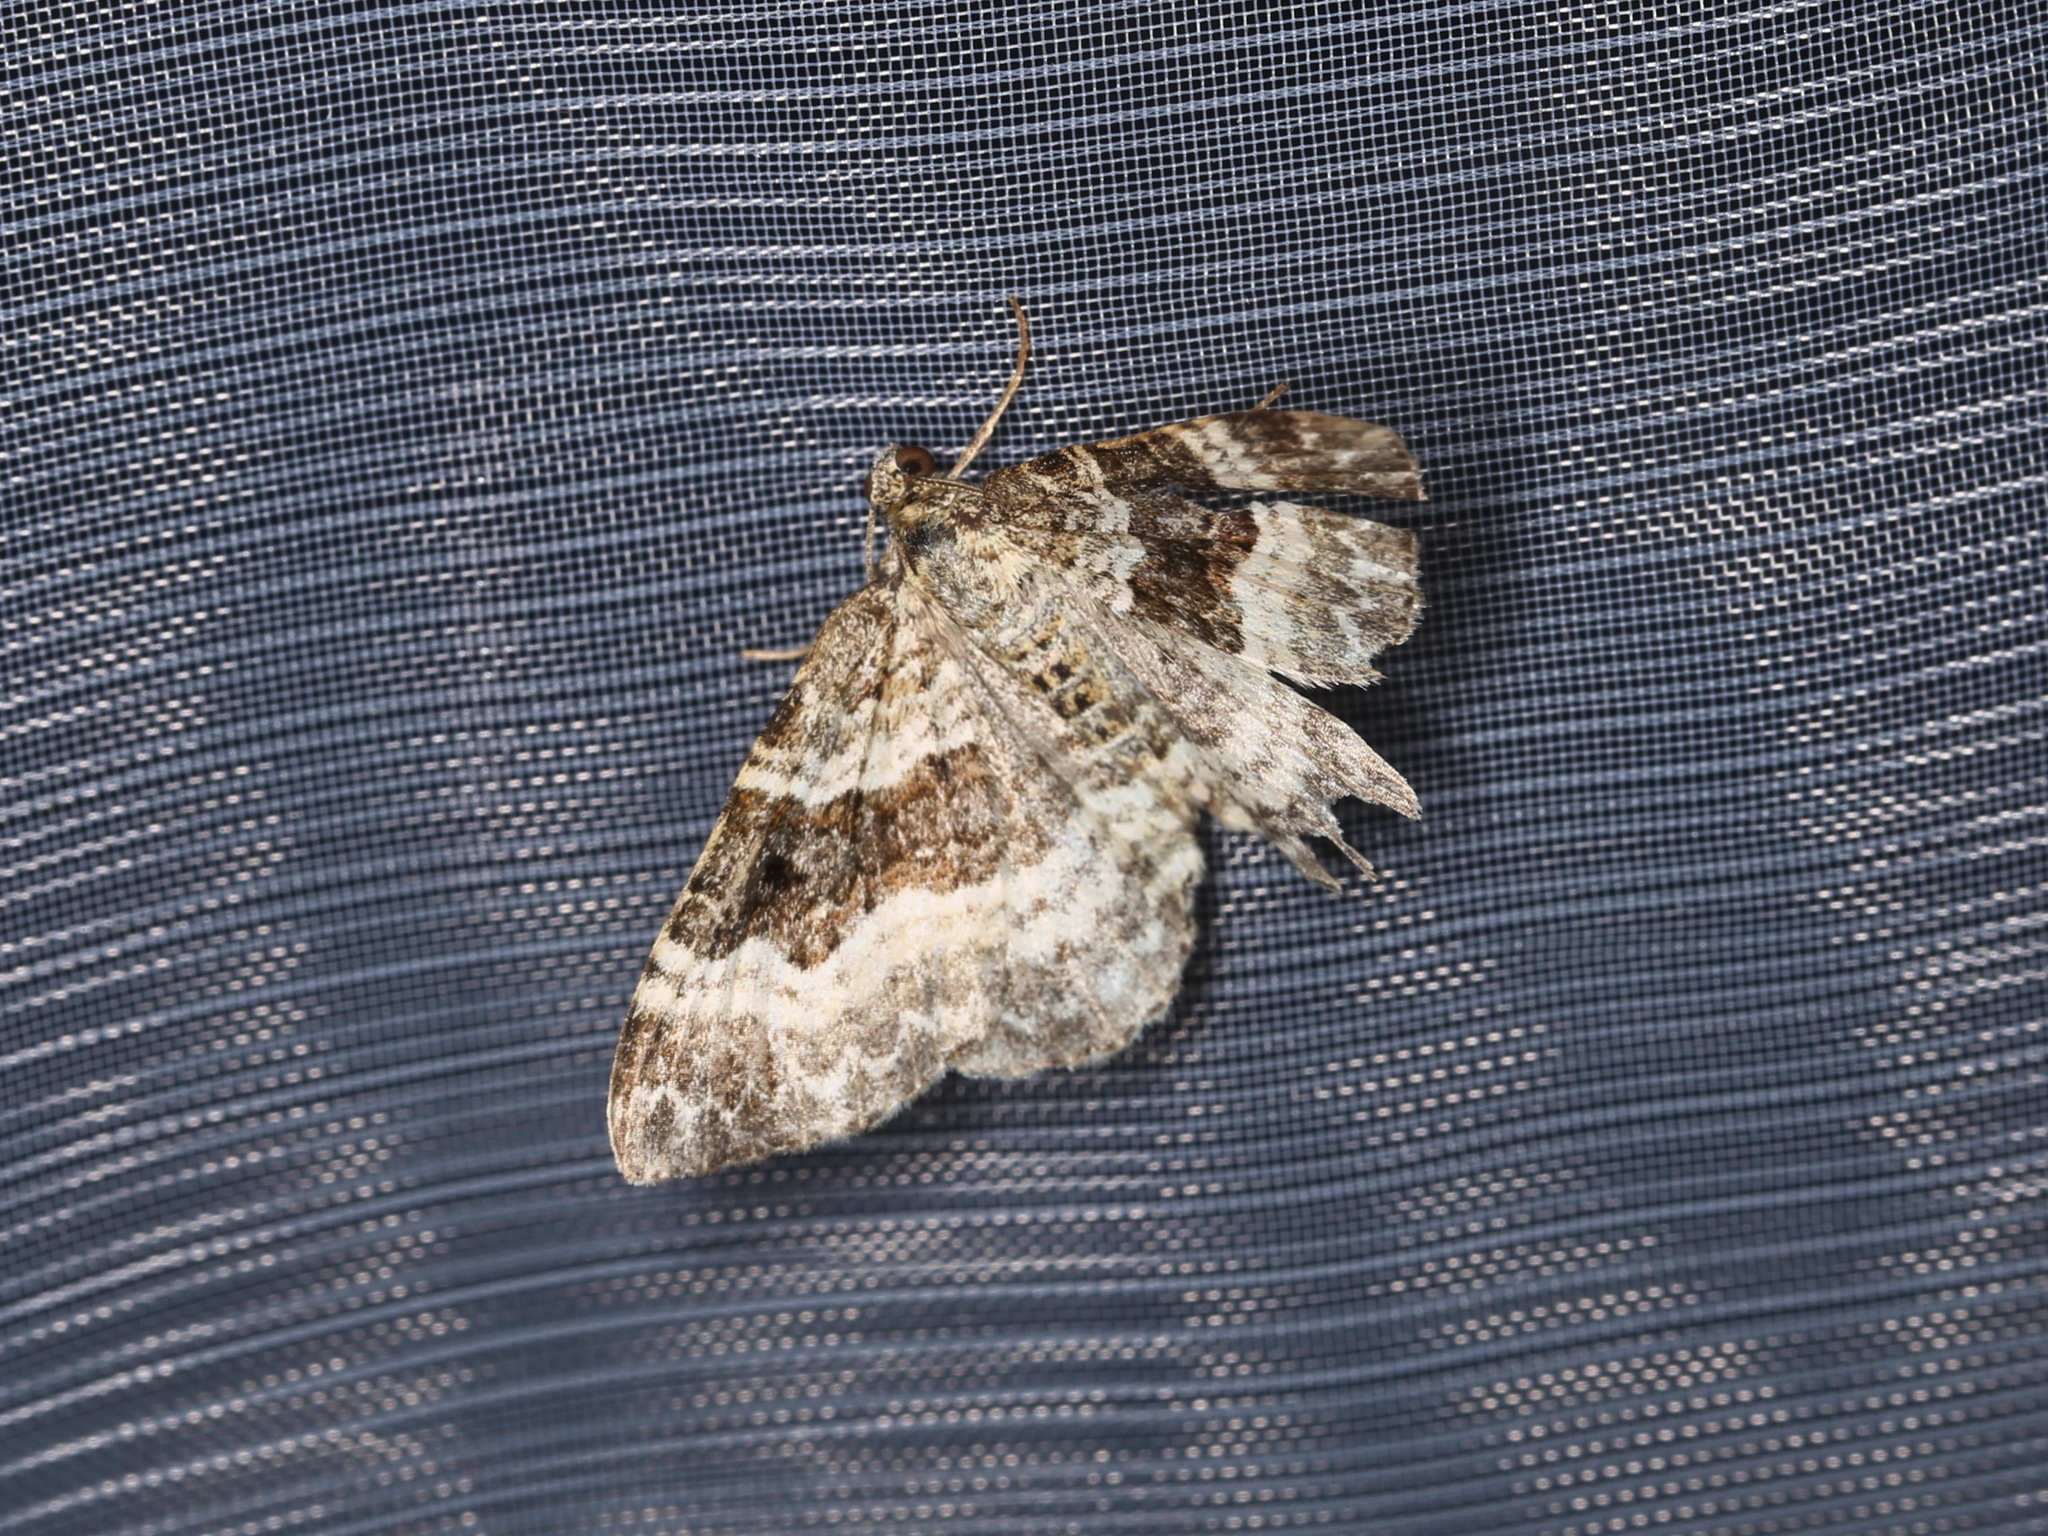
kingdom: Animalia
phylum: Arthropoda
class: Insecta
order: Lepidoptera
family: Geometridae
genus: Epirrhoe
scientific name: Epirrhoe alternata
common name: Common carpet
